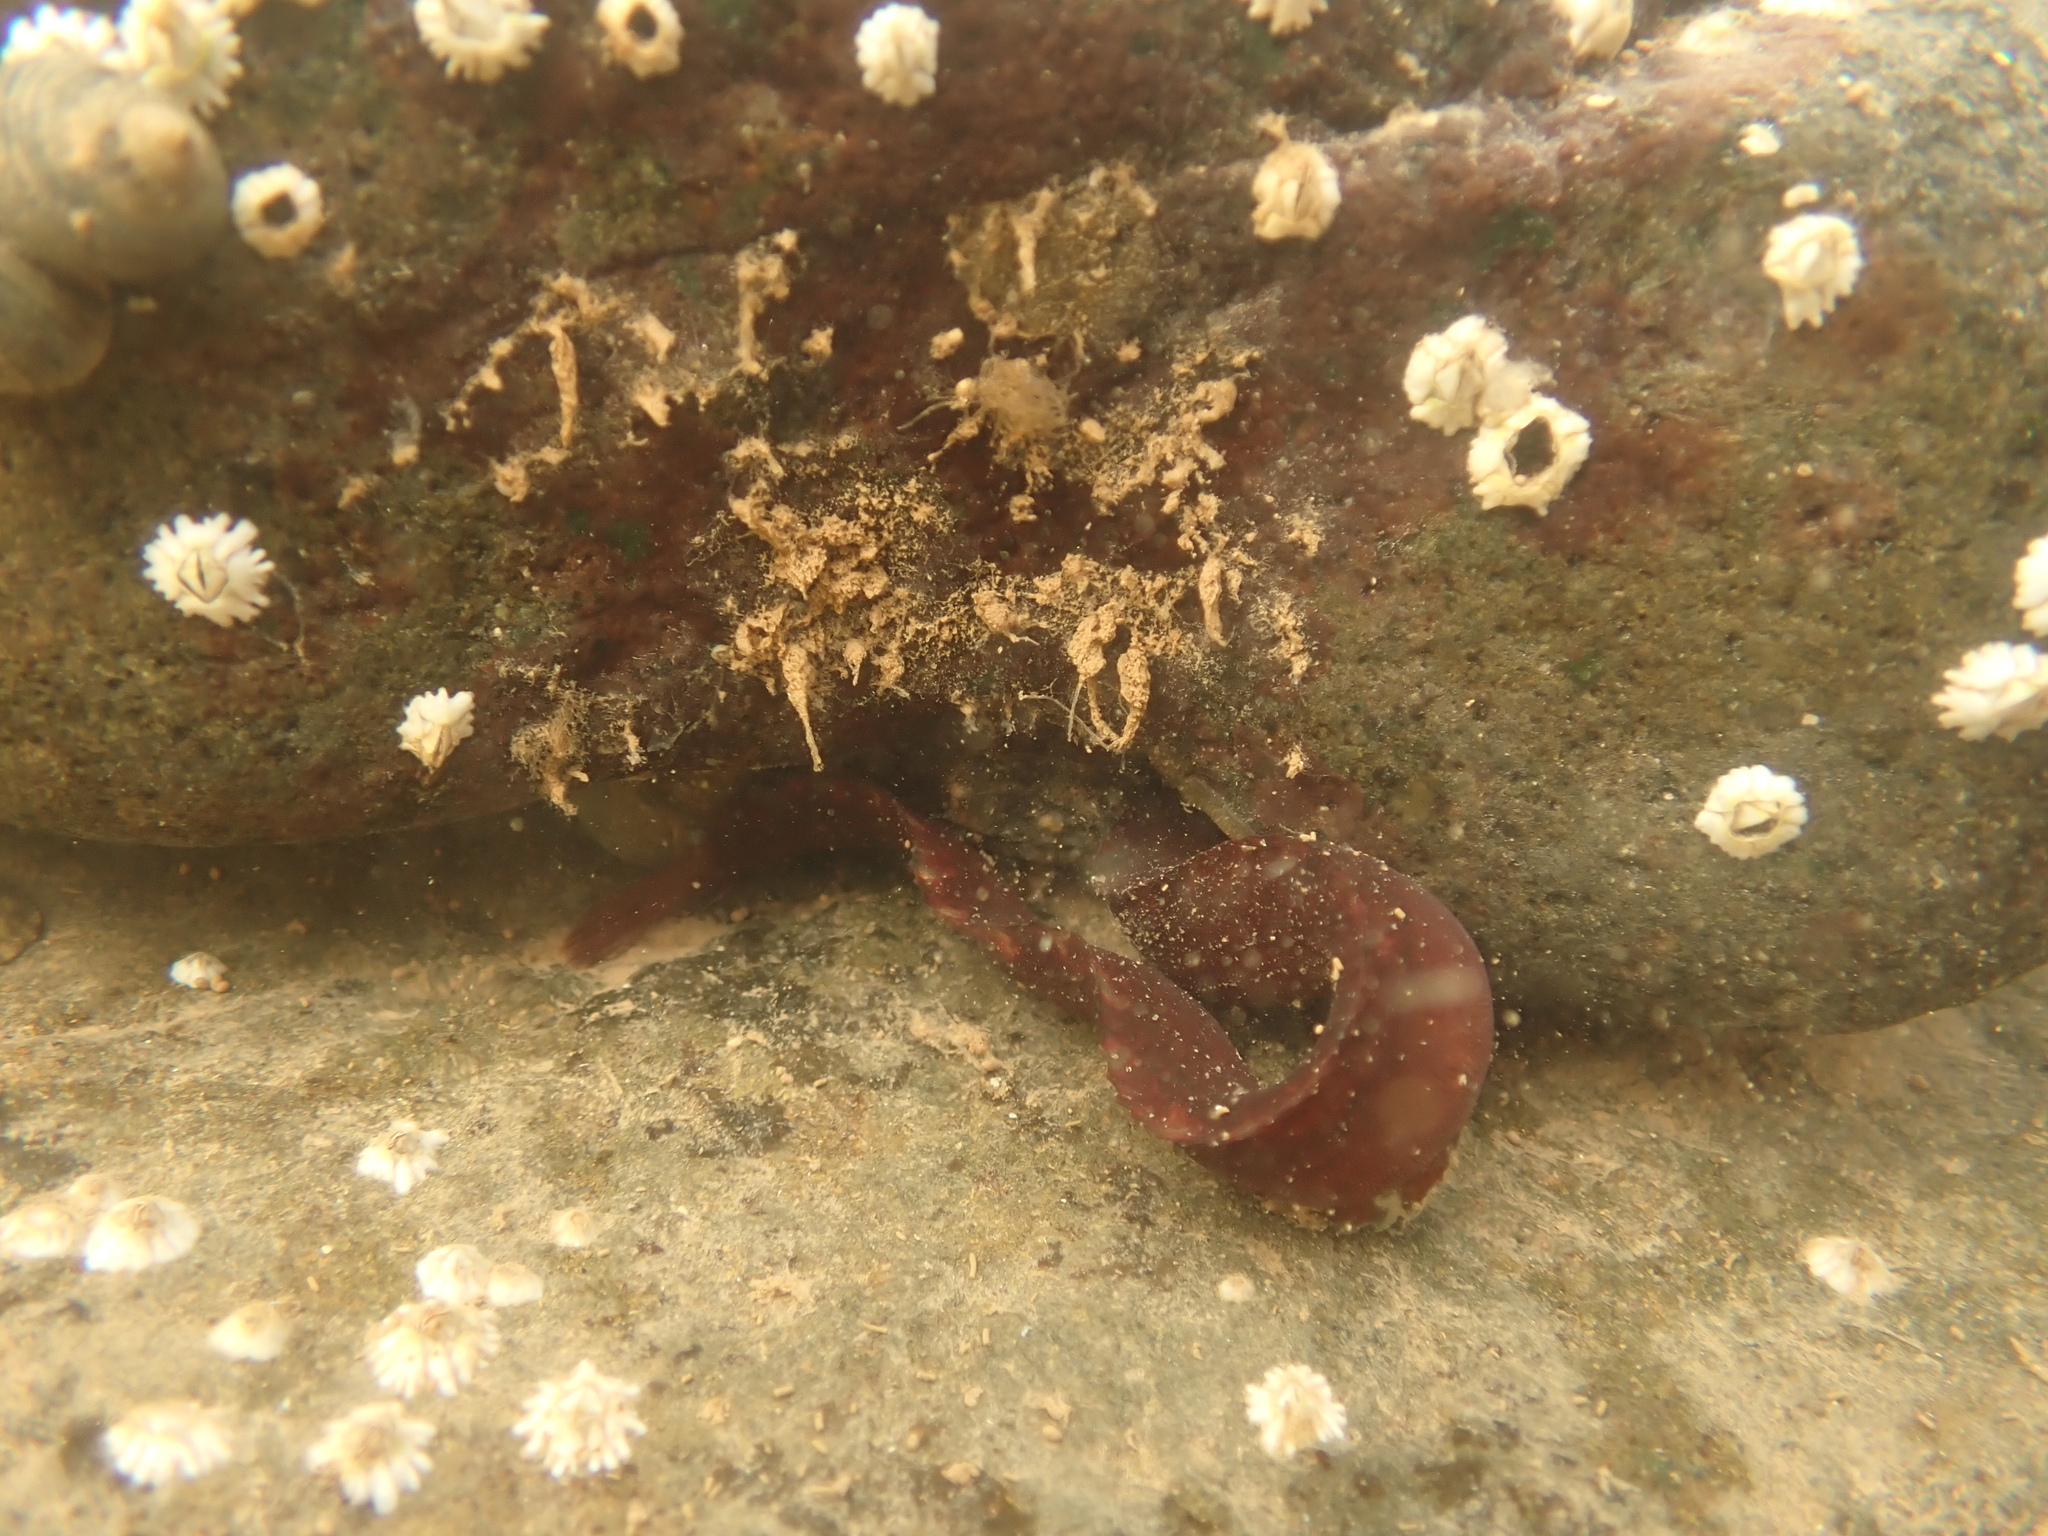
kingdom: Animalia
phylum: Chordata
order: Perciformes
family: Pholidae
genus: Pholis
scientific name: Pholis gunnellus
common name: Butterfish
